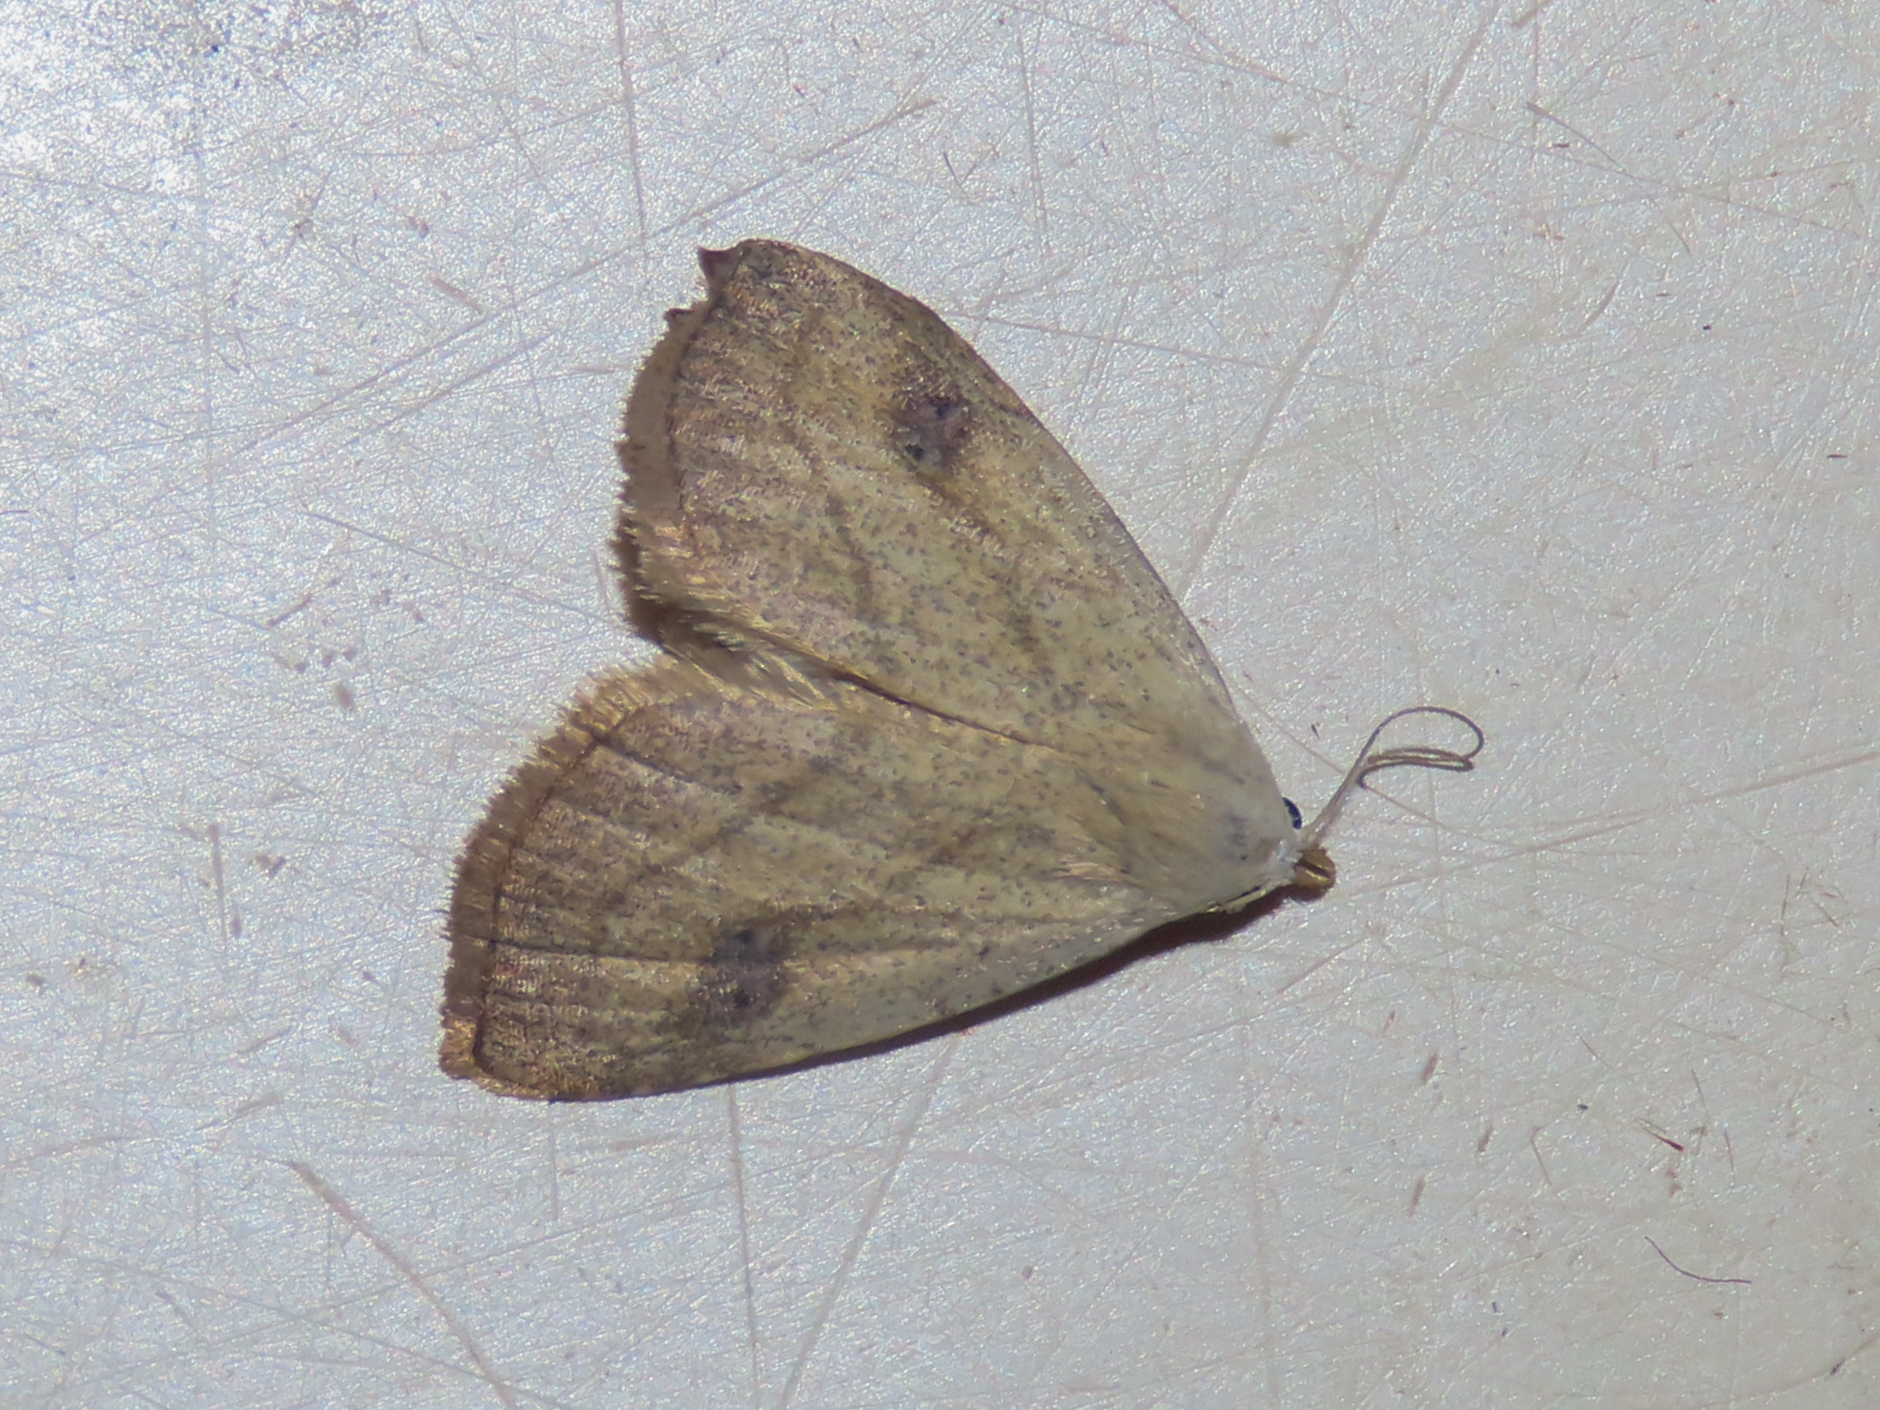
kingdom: Animalia
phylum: Arthropoda
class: Insecta
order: Lepidoptera
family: Erebidae
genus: Rivula
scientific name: Rivula propinqualis
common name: Spotted grass moth
